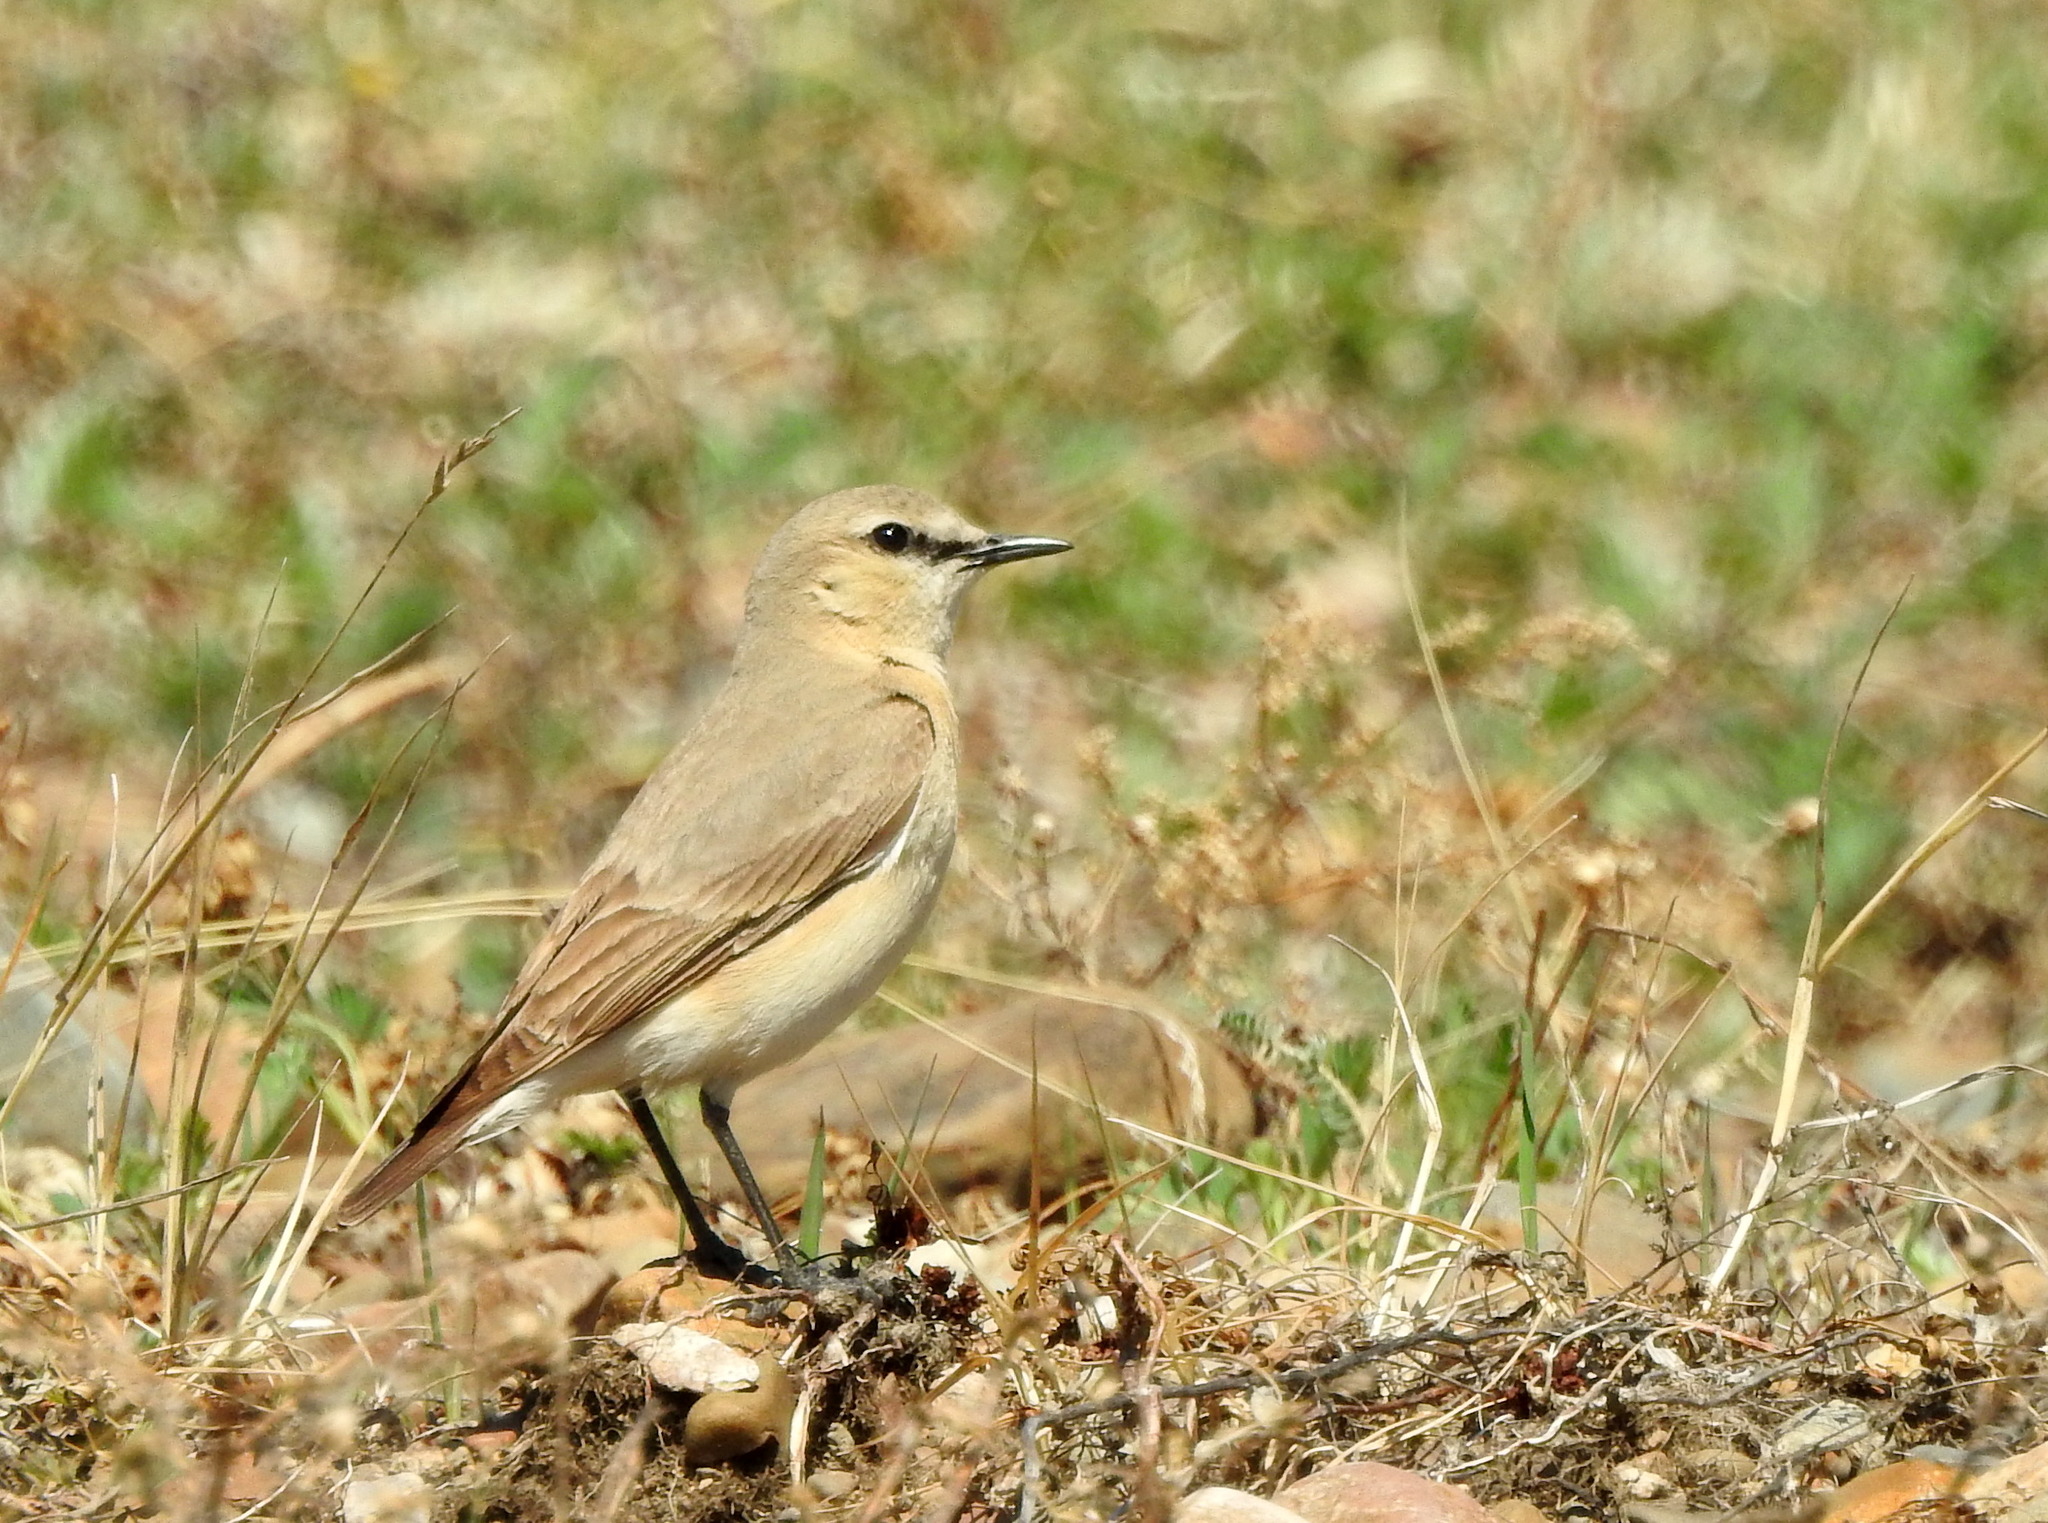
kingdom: Animalia
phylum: Chordata
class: Aves
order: Passeriformes
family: Muscicapidae
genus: Oenanthe
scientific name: Oenanthe oenanthe
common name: Northern wheatear
